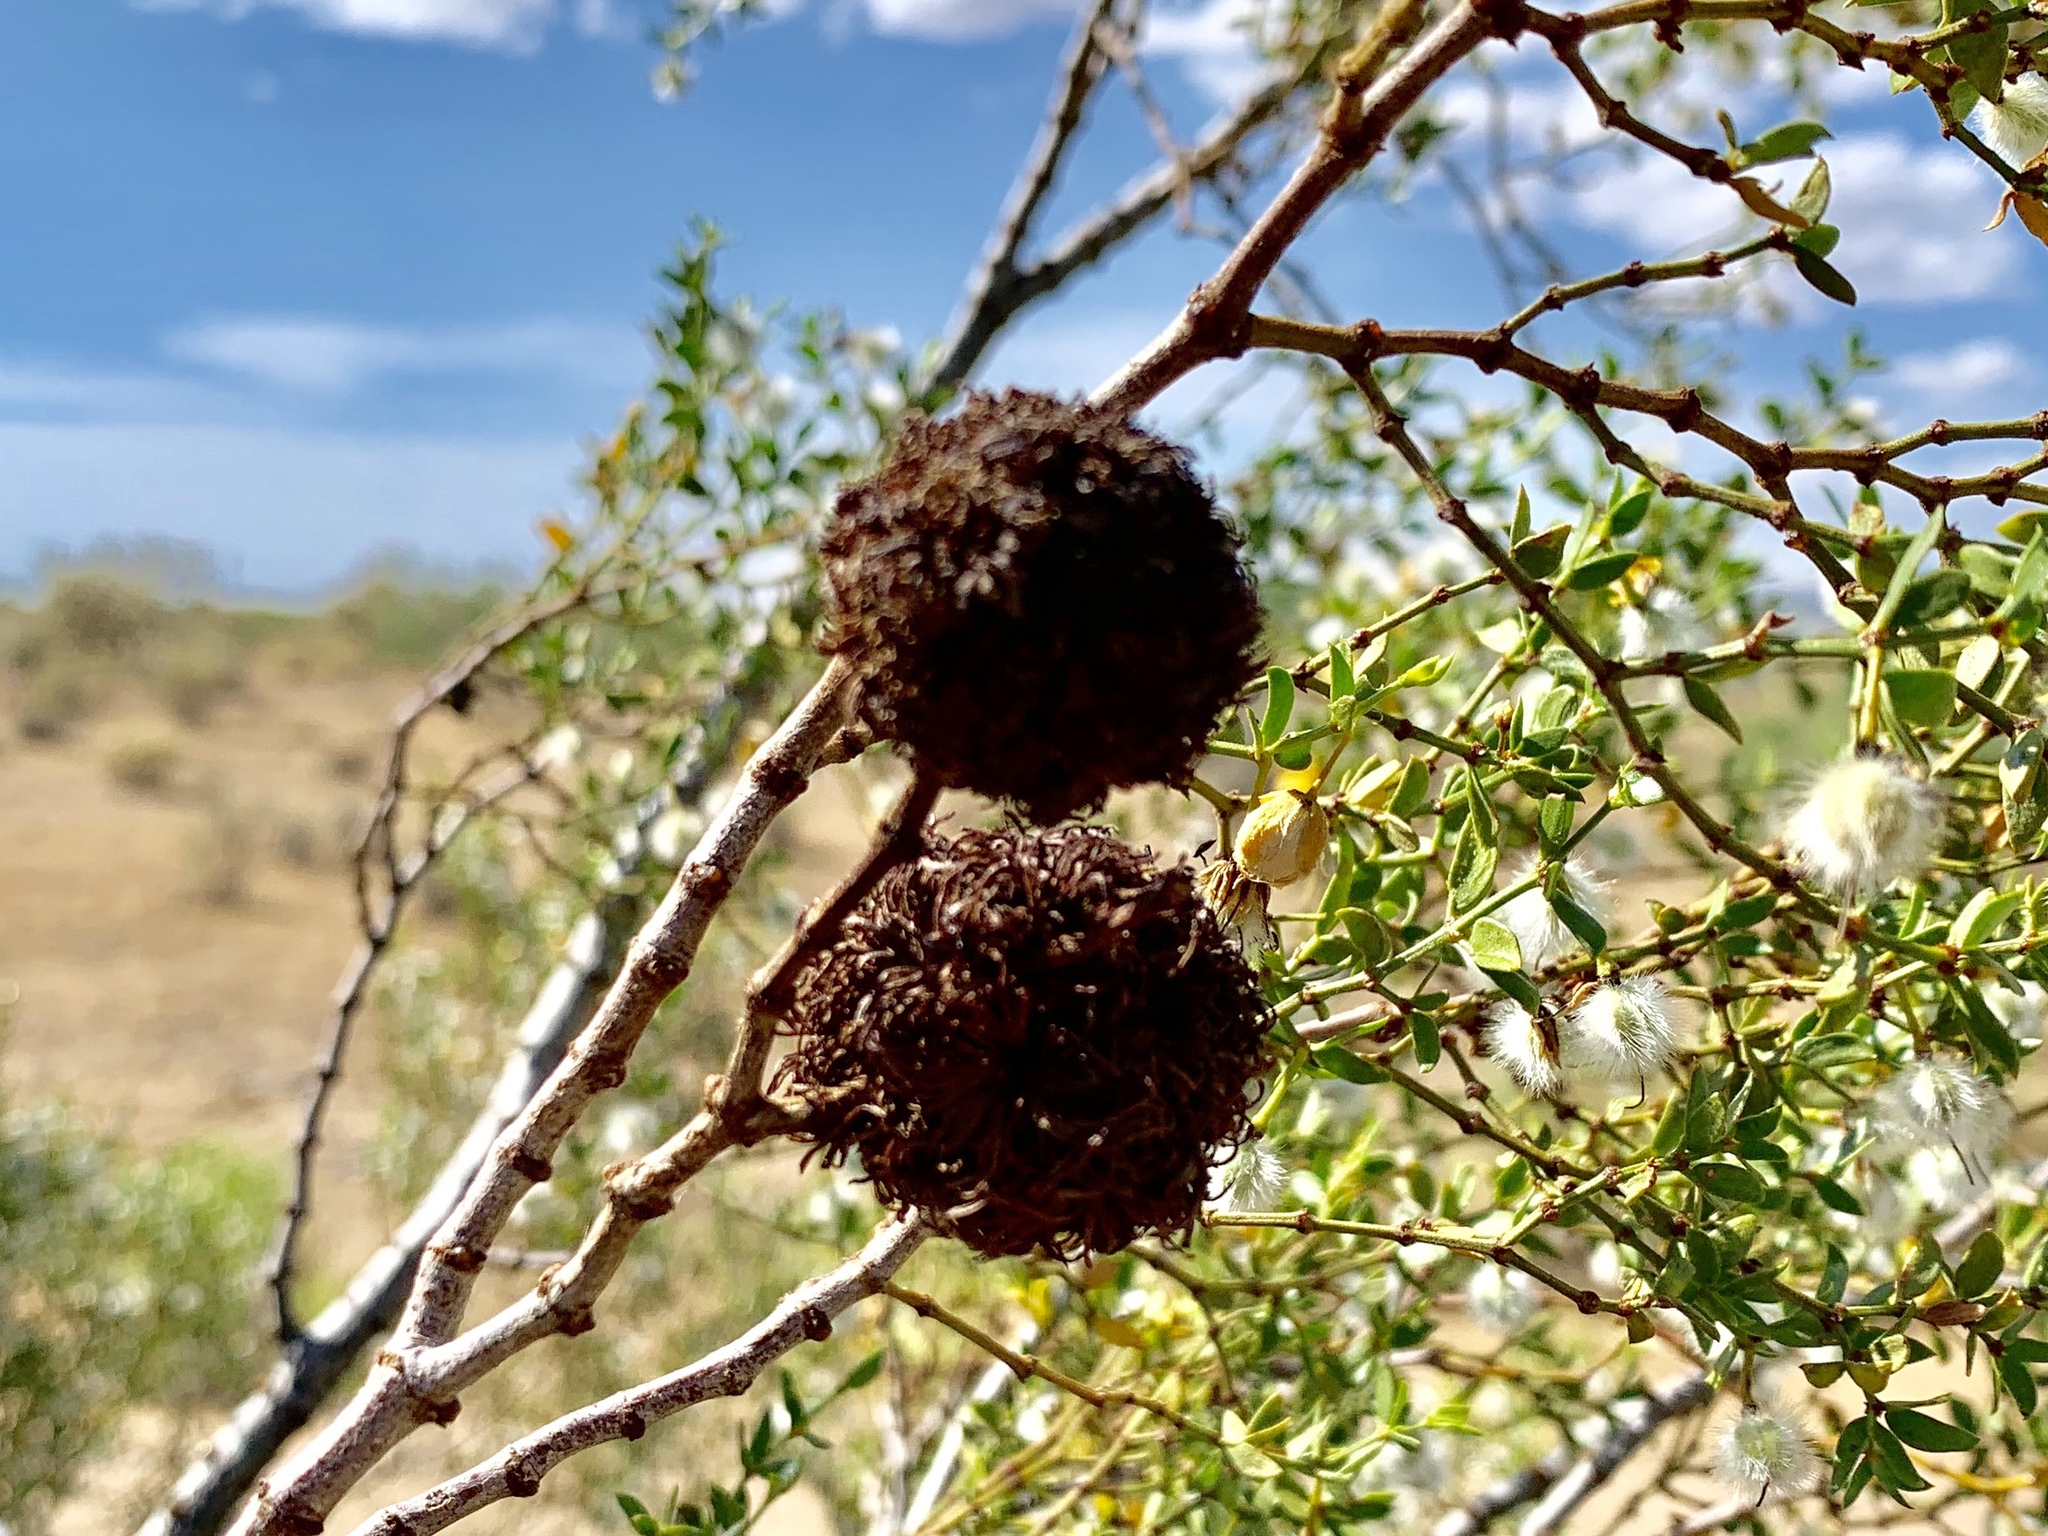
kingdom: Animalia
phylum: Arthropoda
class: Insecta
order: Diptera
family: Cecidomyiidae
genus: Asphondylia
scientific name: Asphondylia auripila
